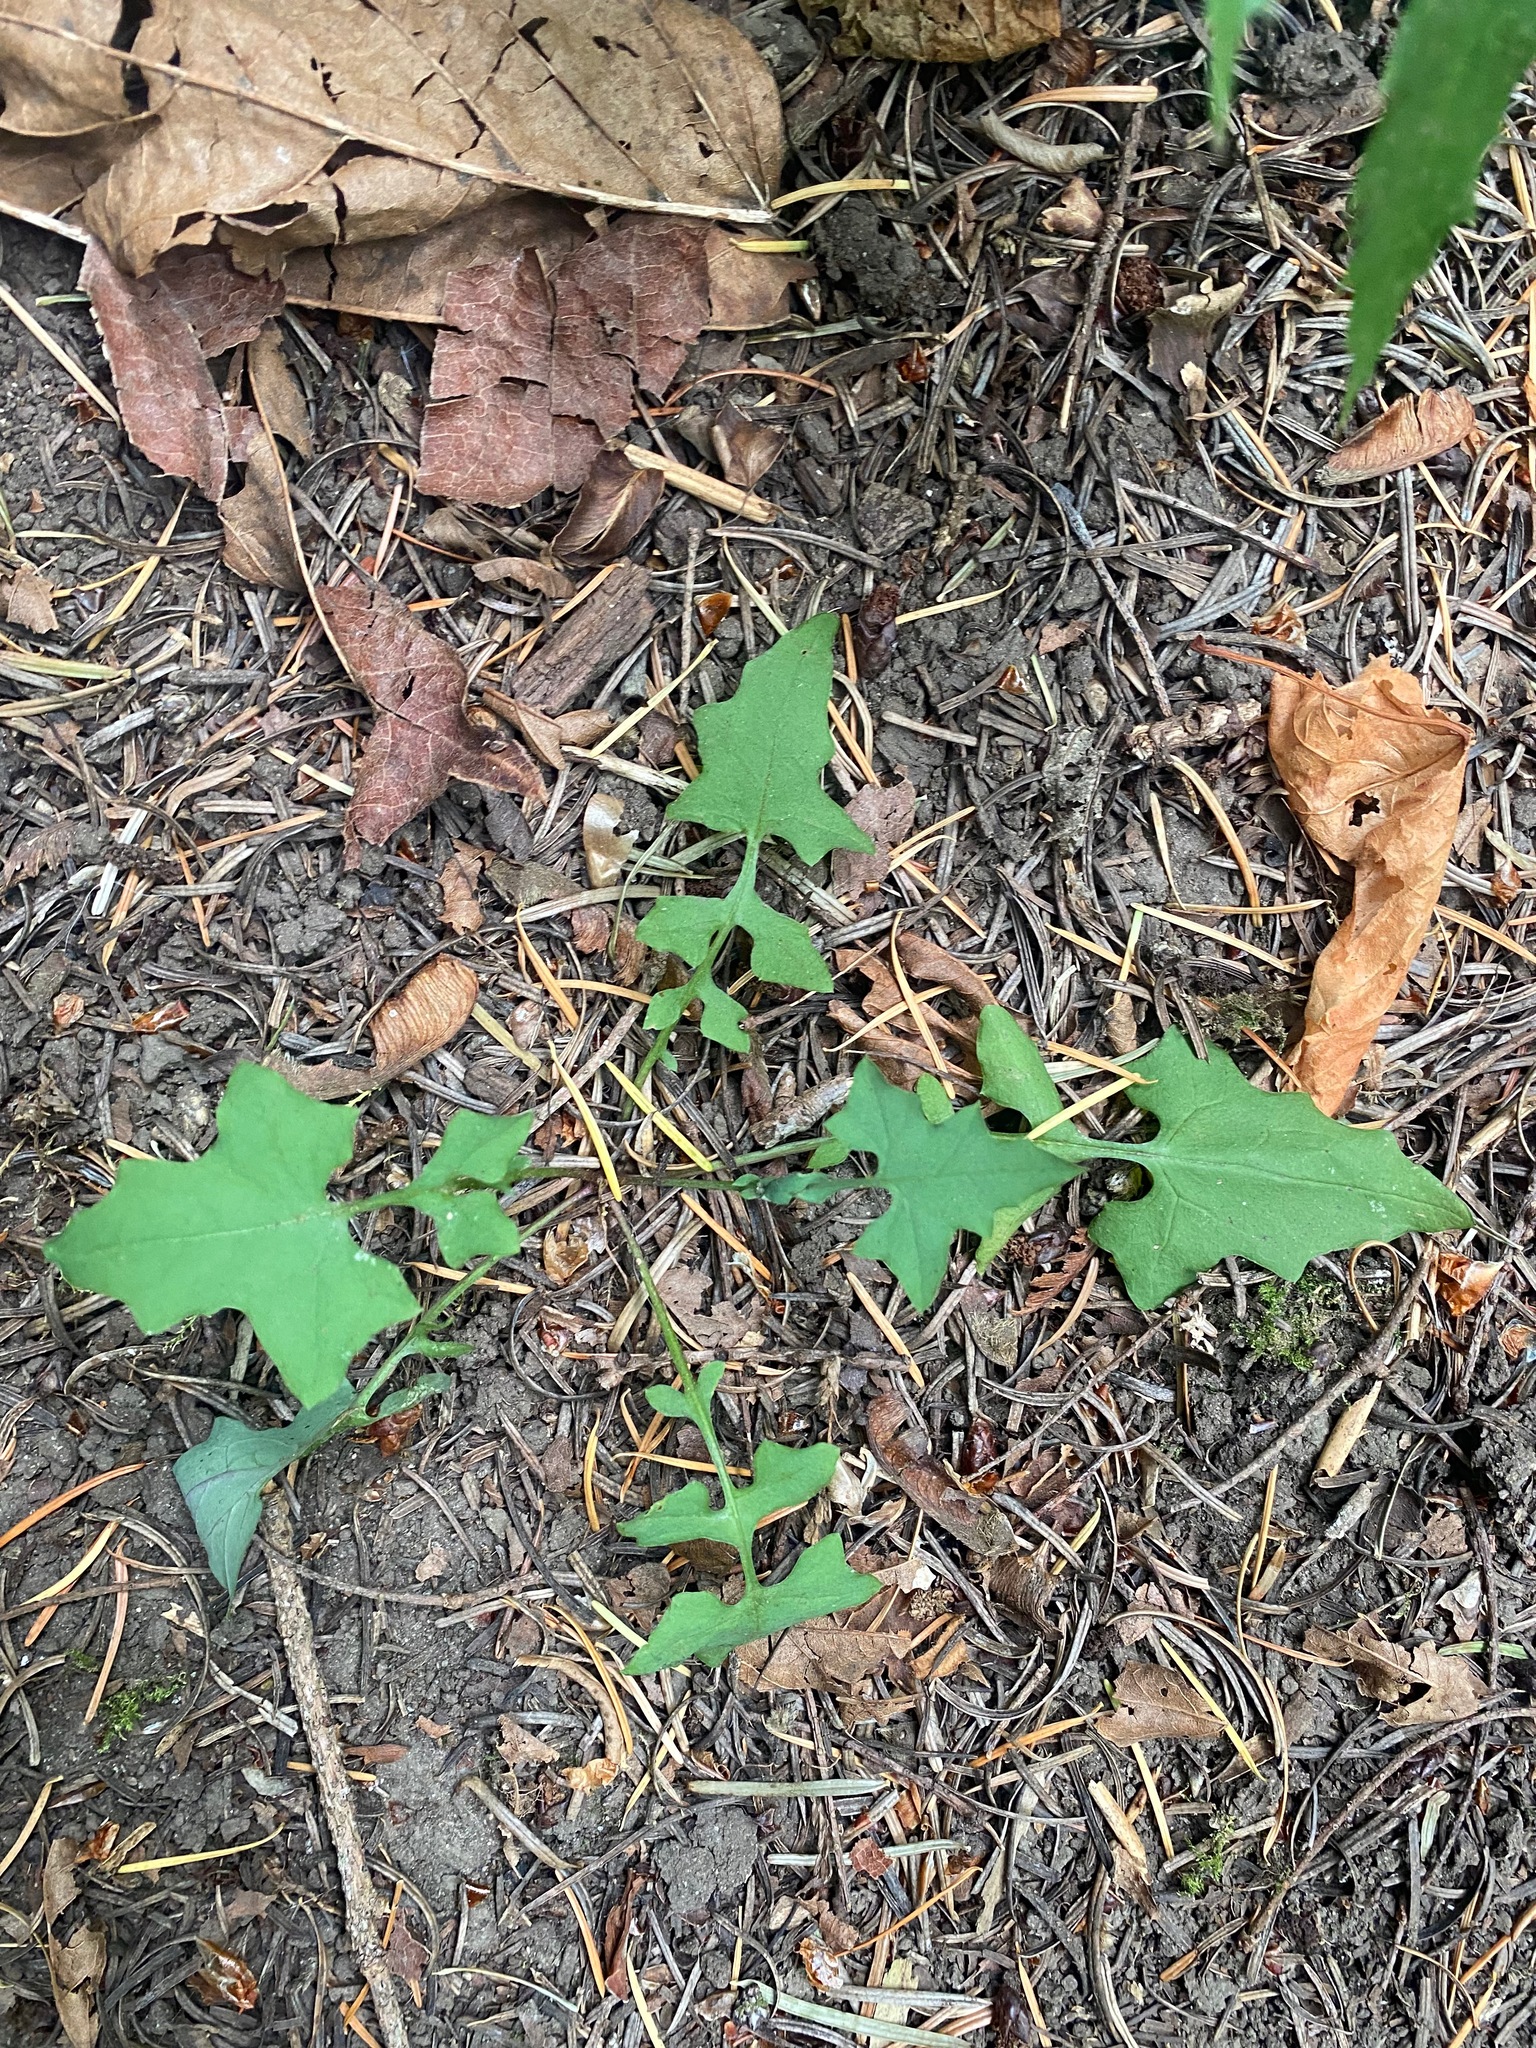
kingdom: Plantae
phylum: Tracheophyta
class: Magnoliopsida
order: Asterales
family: Asteraceae
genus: Mycelis
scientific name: Mycelis muralis
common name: Wall lettuce
